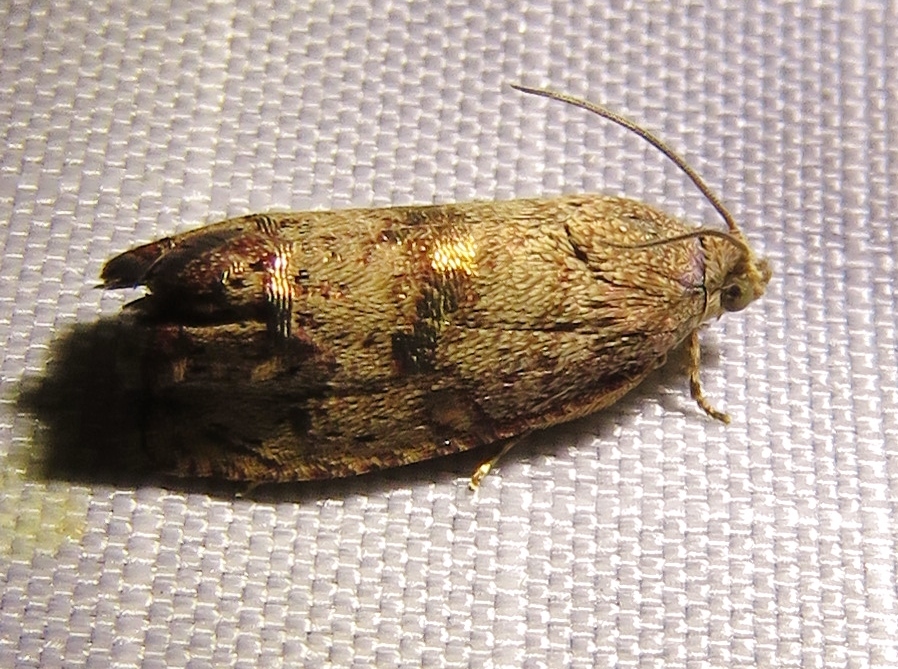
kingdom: Animalia
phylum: Arthropoda
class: Insecta
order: Lepidoptera
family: Tortricidae
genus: Cydia
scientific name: Cydia latiferreana
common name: Filbertworm moth
